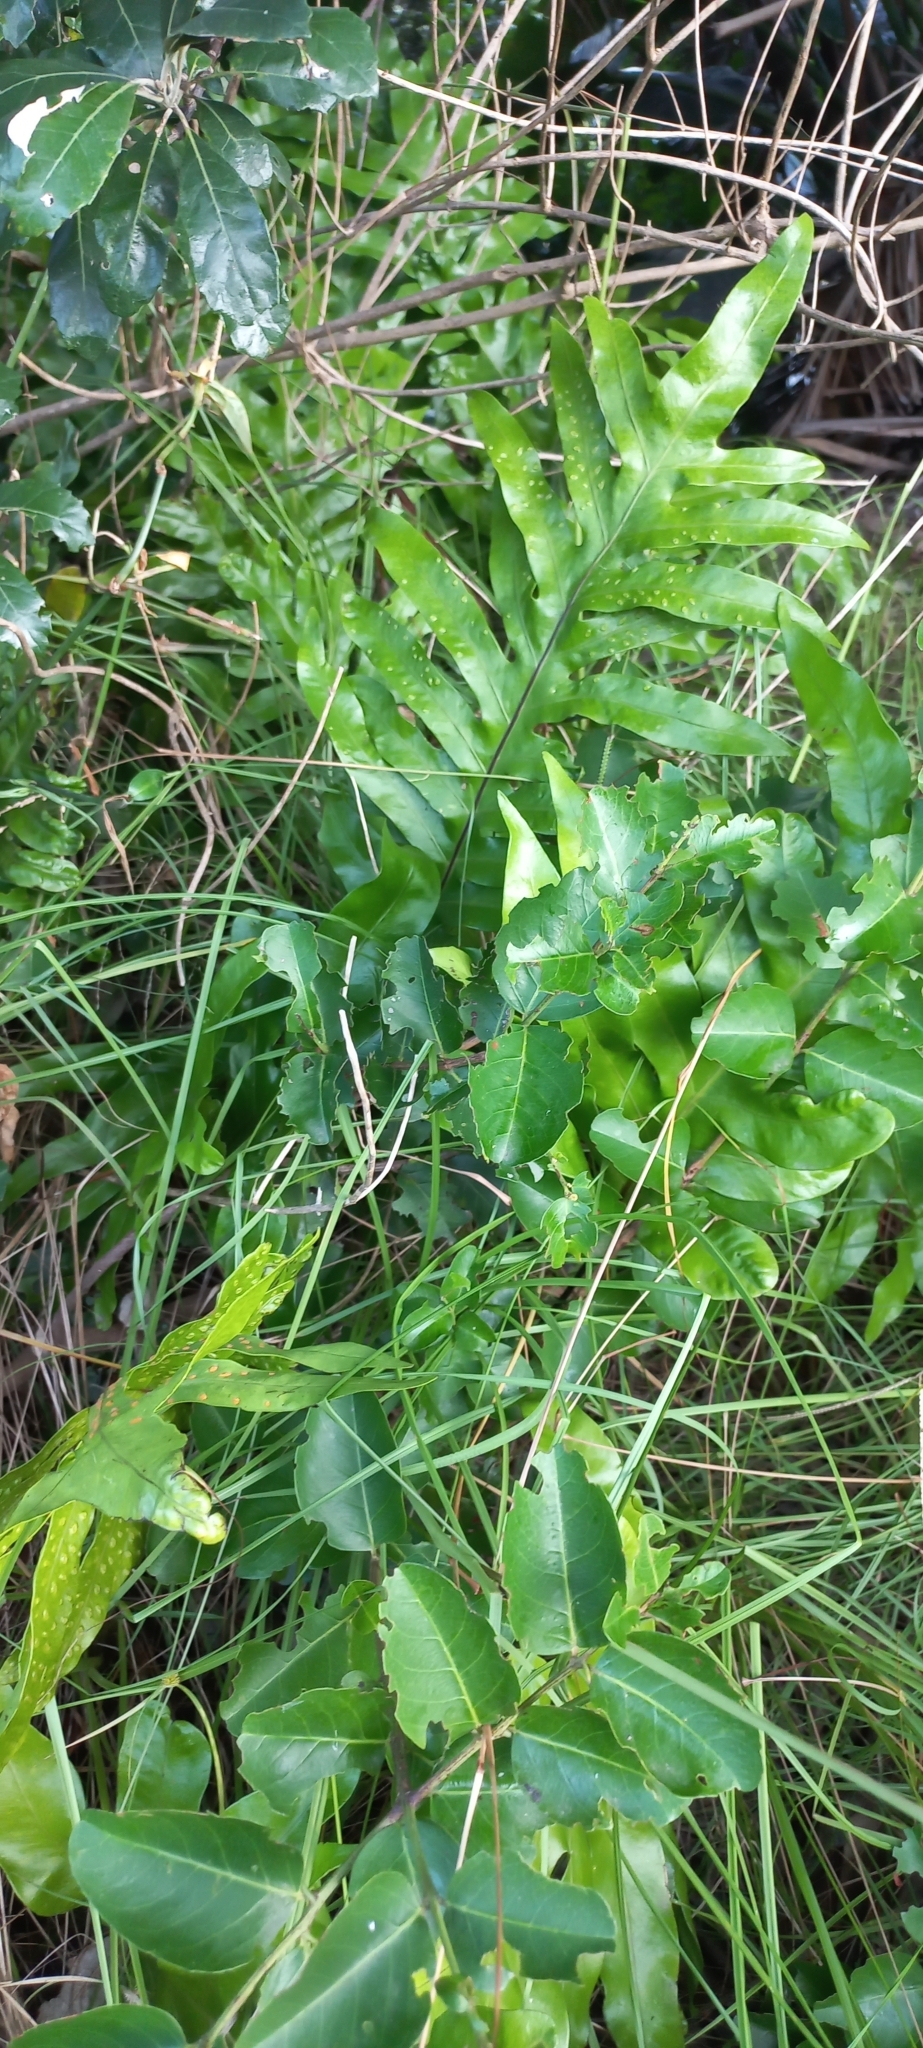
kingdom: Plantae
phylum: Tracheophyta
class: Polypodiopsida
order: Polypodiales
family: Polypodiaceae
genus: Microsorum
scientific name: Microsorum scolopendria
